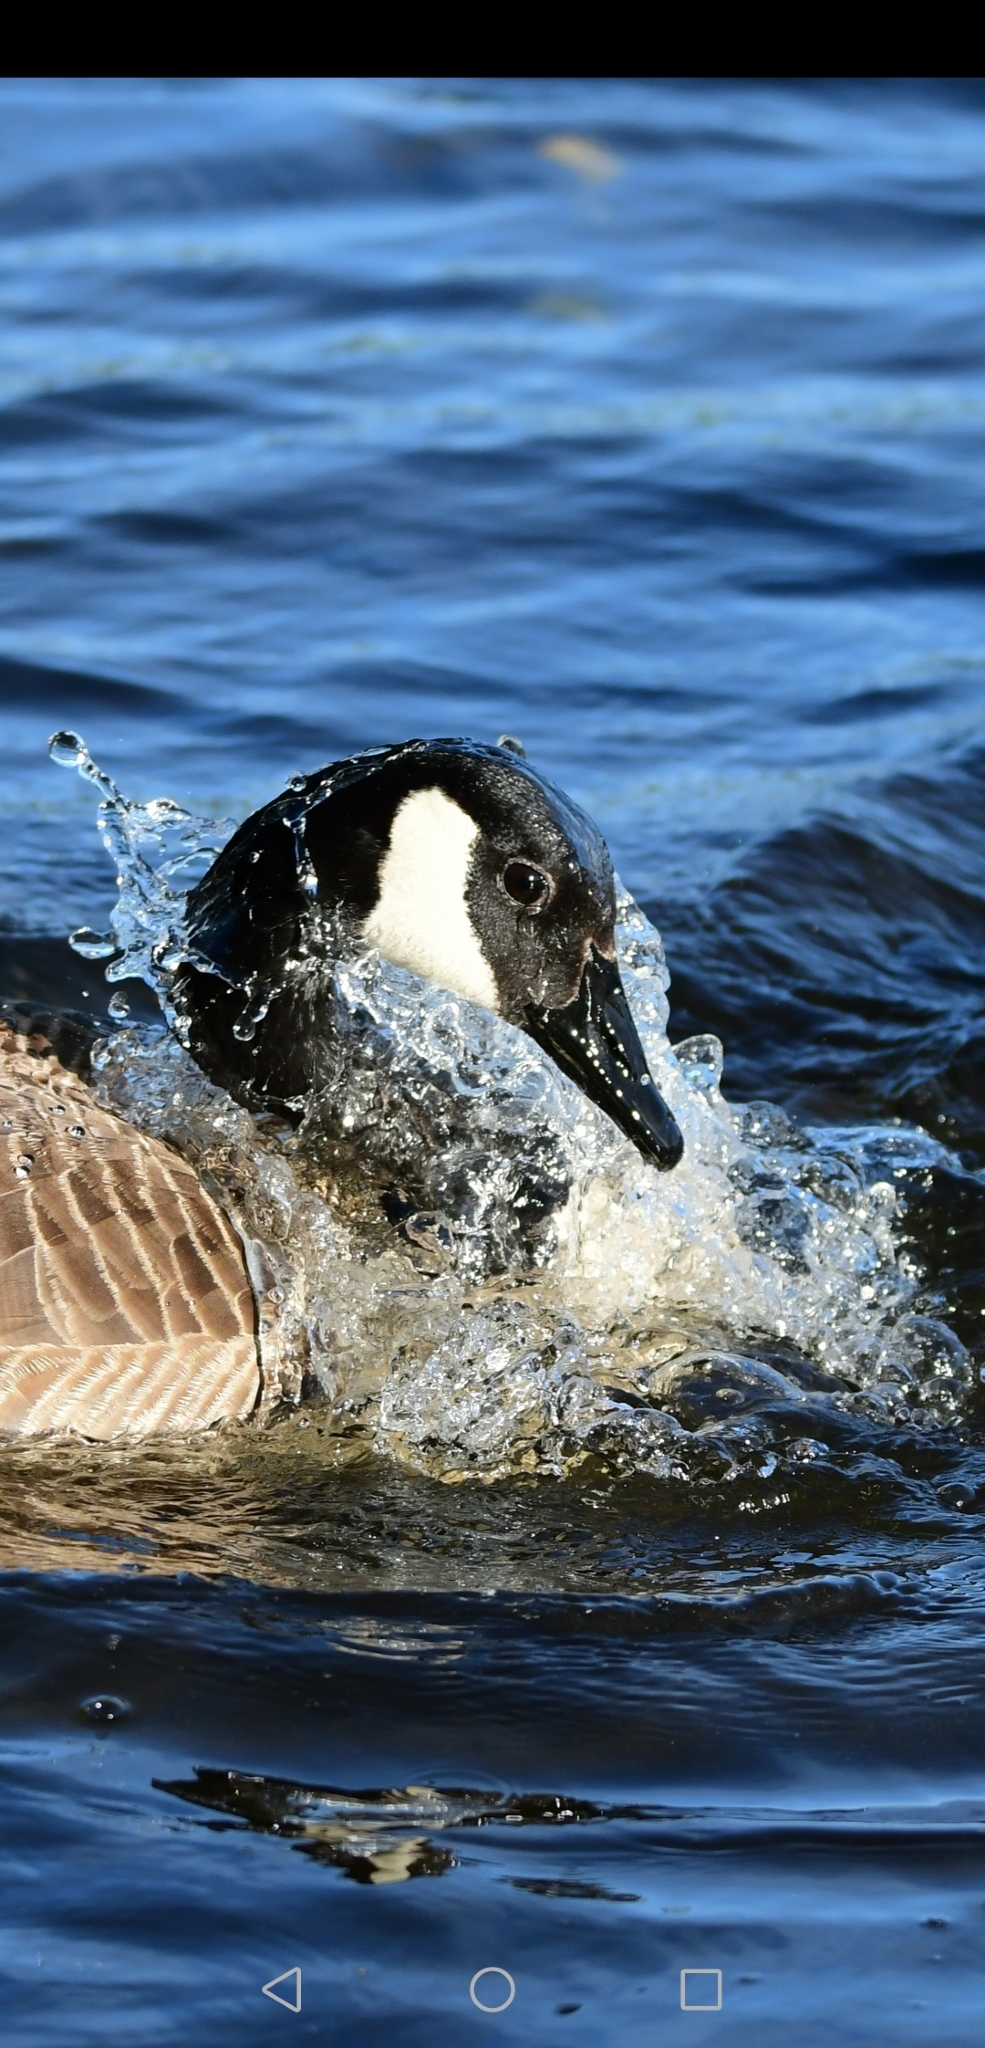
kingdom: Animalia
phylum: Chordata
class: Aves
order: Anseriformes
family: Anatidae
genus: Branta
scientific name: Branta canadensis
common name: Canada goose
